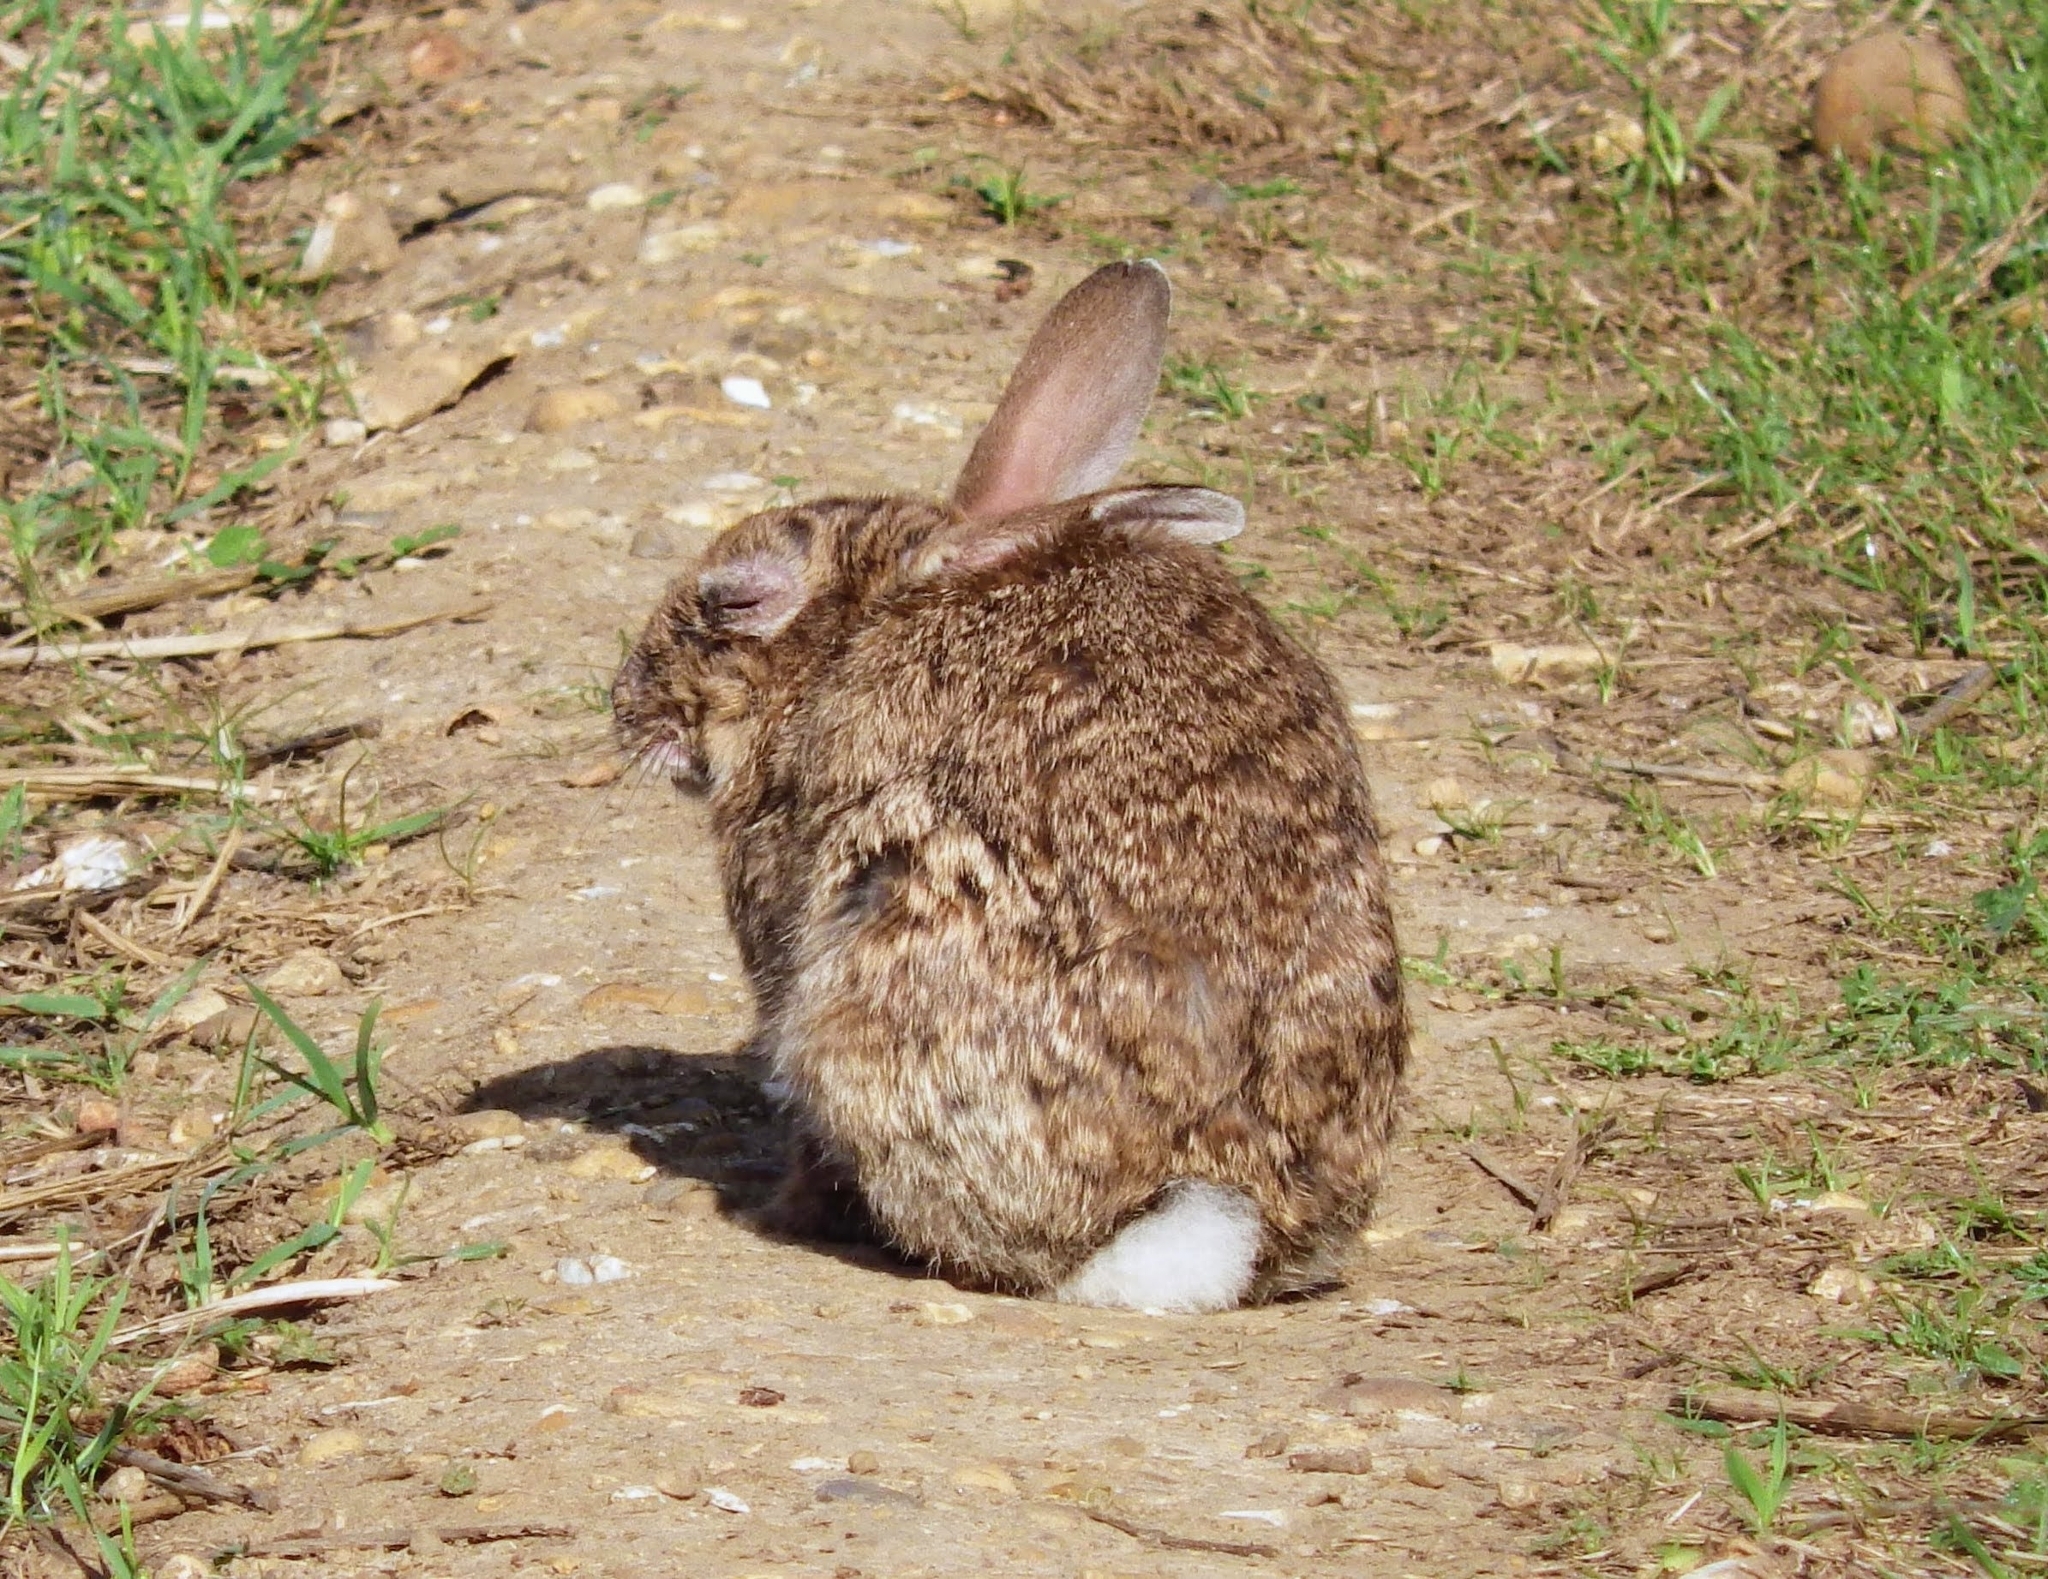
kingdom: Animalia
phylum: Chordata
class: Mammalia
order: Lagomorpha
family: Leporidae
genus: Oryctolagus
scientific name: Oryctolagus cuniculus
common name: European rabbit
